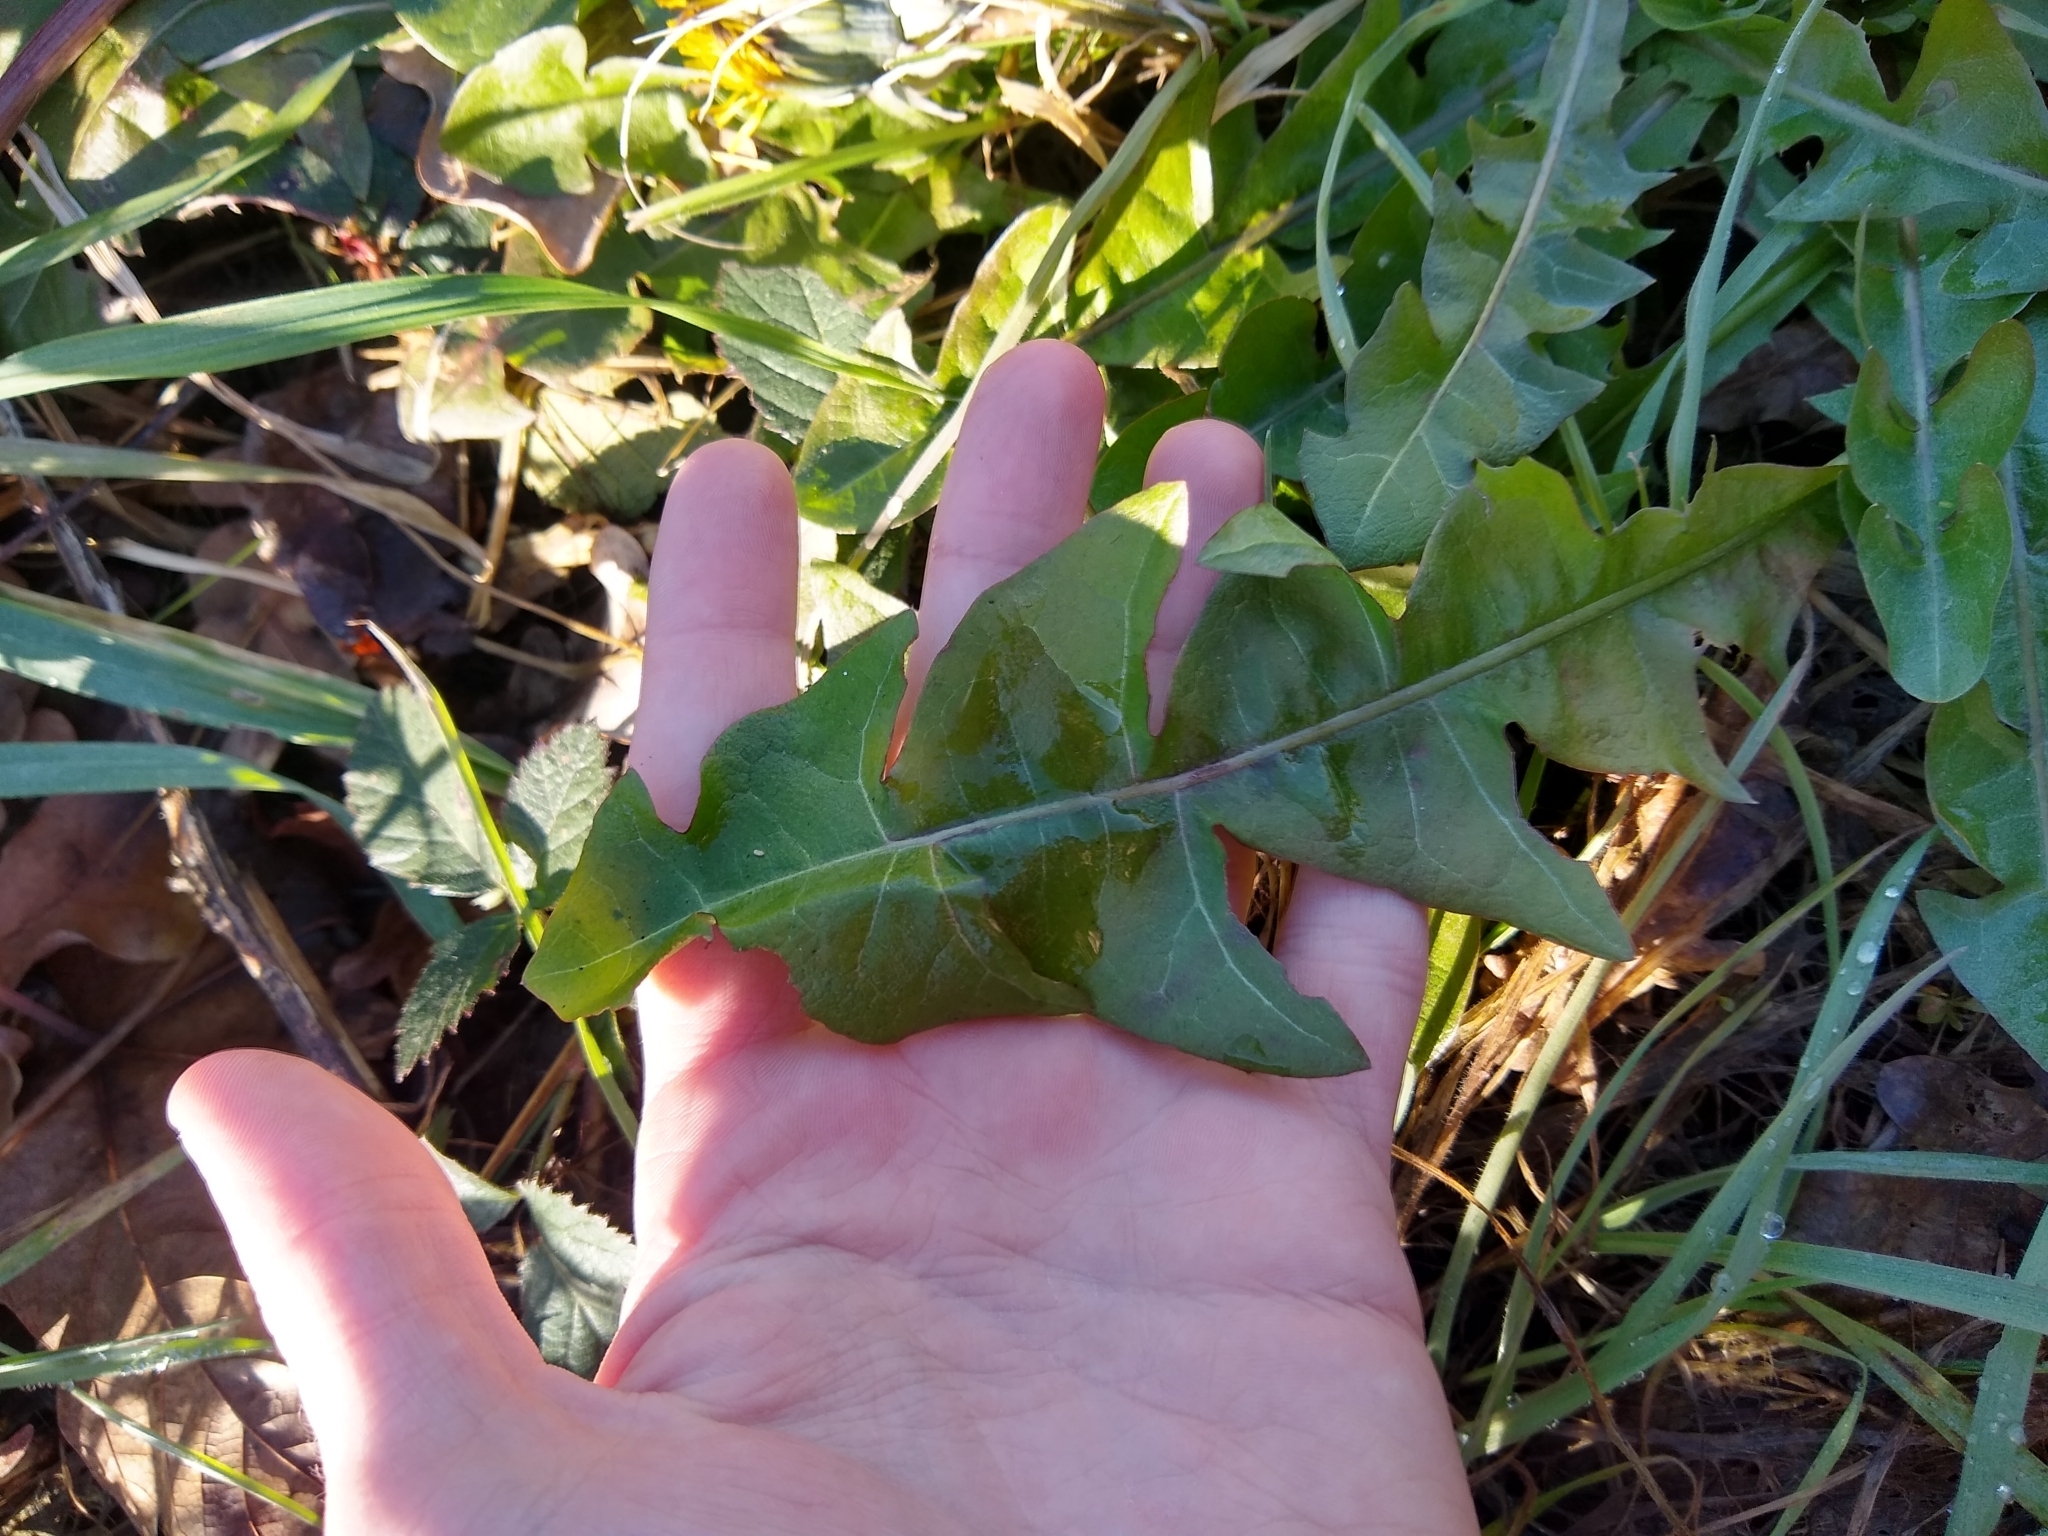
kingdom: Plantae
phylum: Tracheophyta
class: Magnoliopsida
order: Asterales
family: Asteraceae
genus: Taraxacum
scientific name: Taraxacum officinale
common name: Common dandelion
